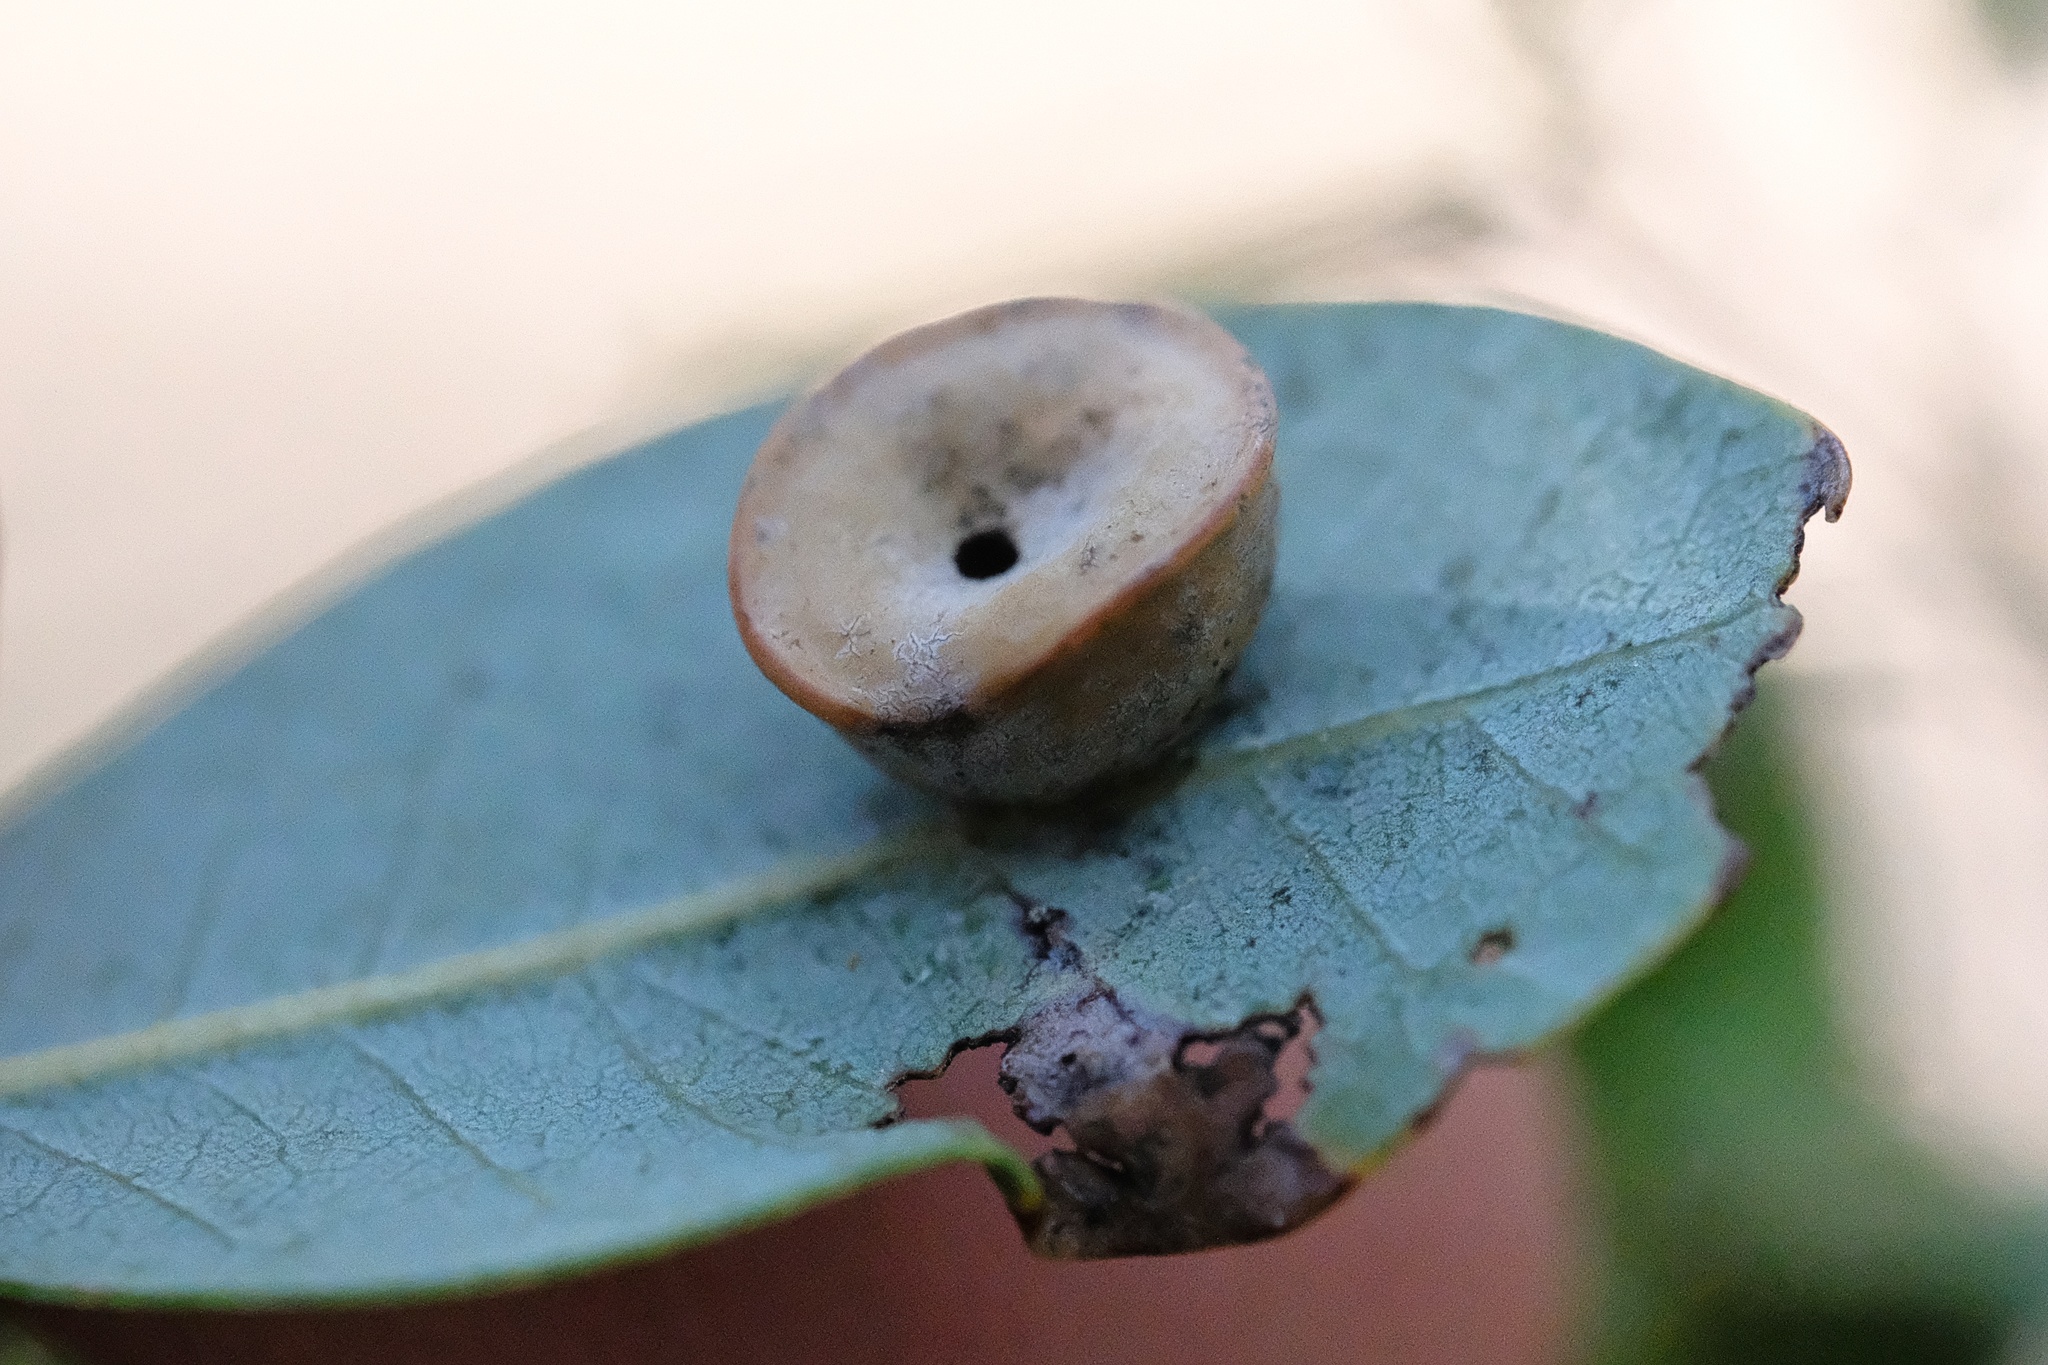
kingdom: Animalia
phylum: Arthropoda
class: Insecta
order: Hymenoptera
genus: Paracraspis
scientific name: Paracraspis
